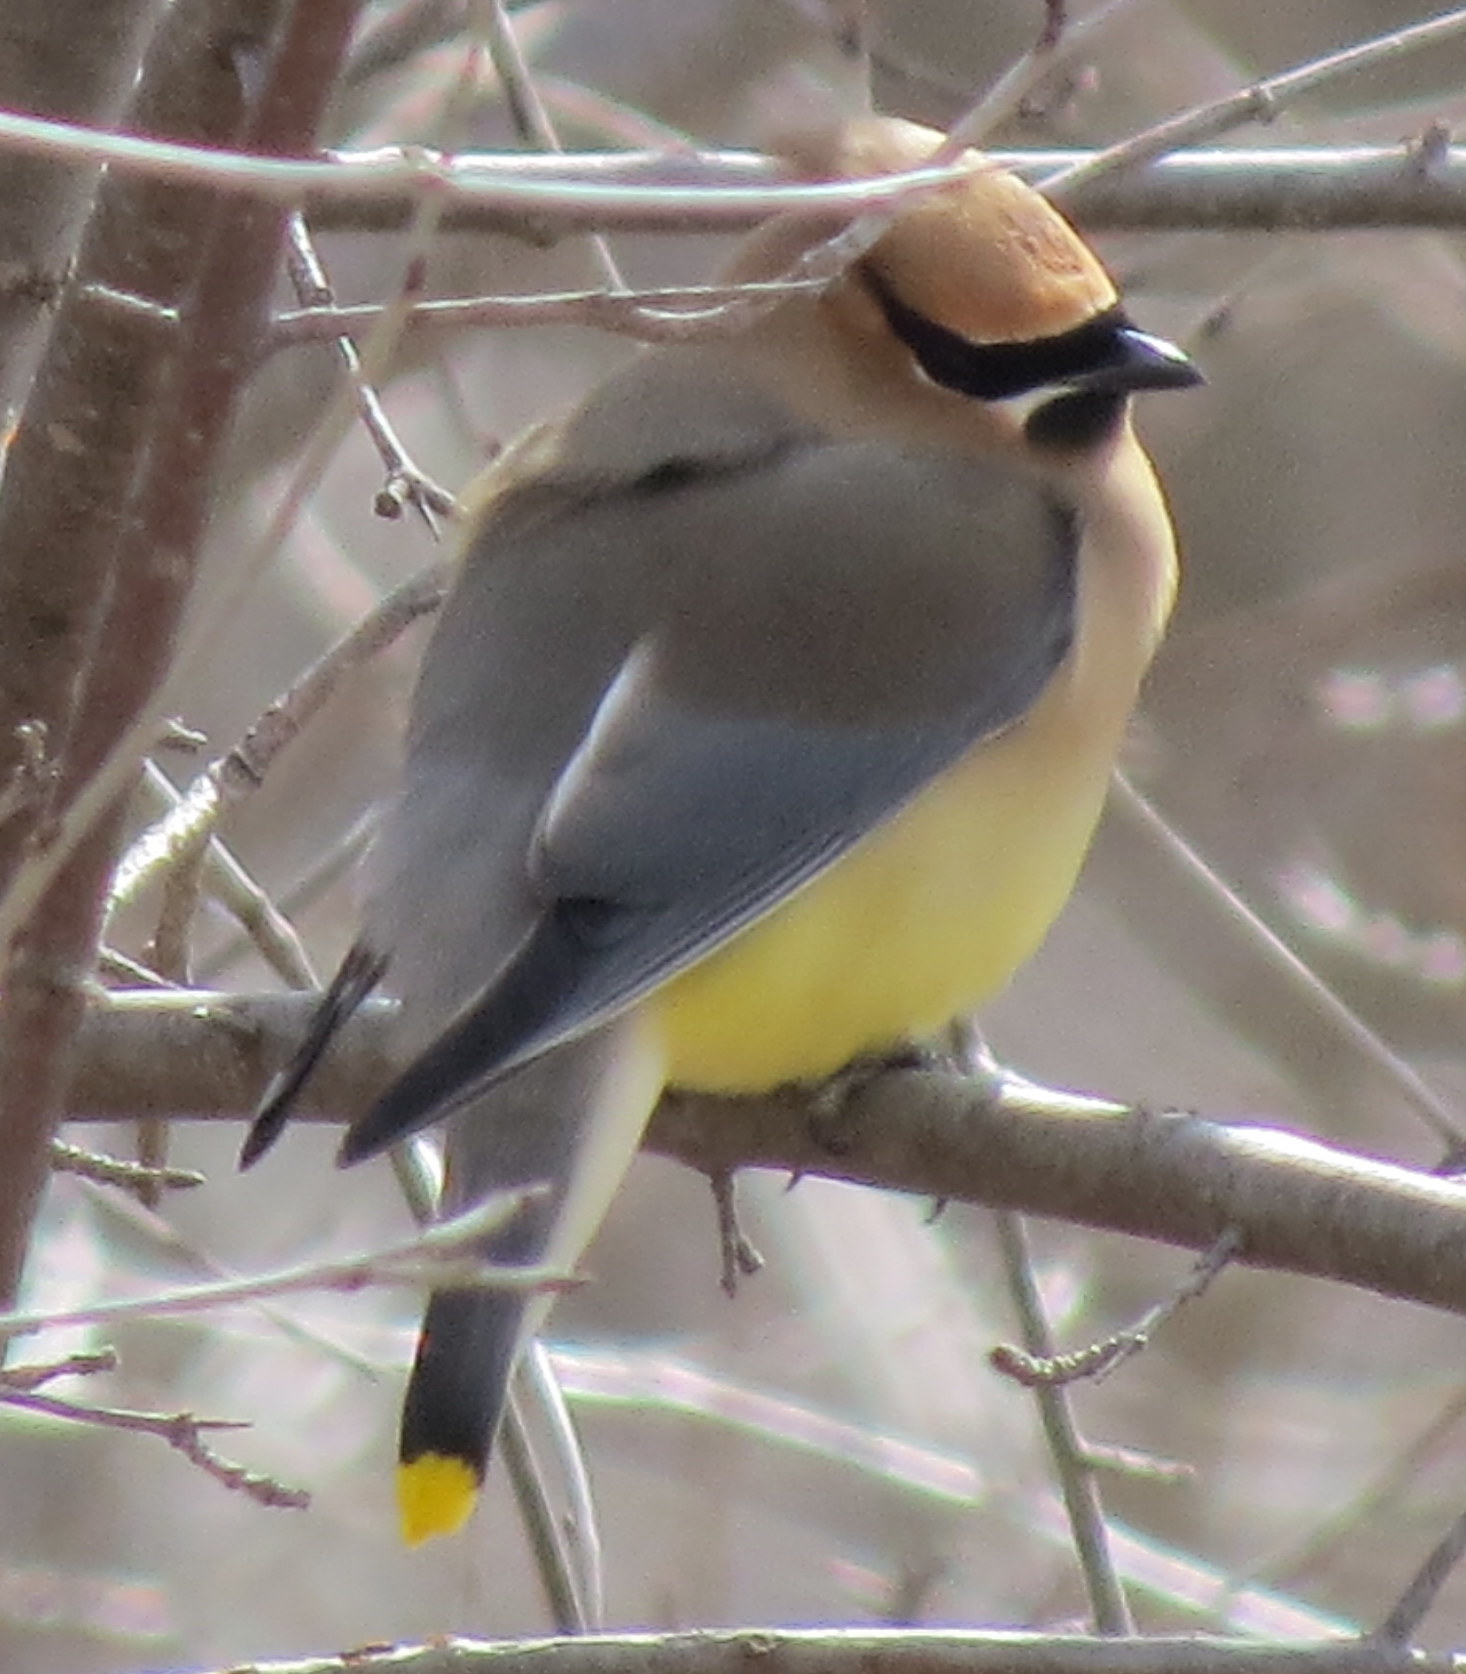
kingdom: Animalia
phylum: Chordata
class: Aves
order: Passeriformes
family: Bombycillidae
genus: Bombycilla
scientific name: Bombycilla cedrorum
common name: Cedar waxwing
